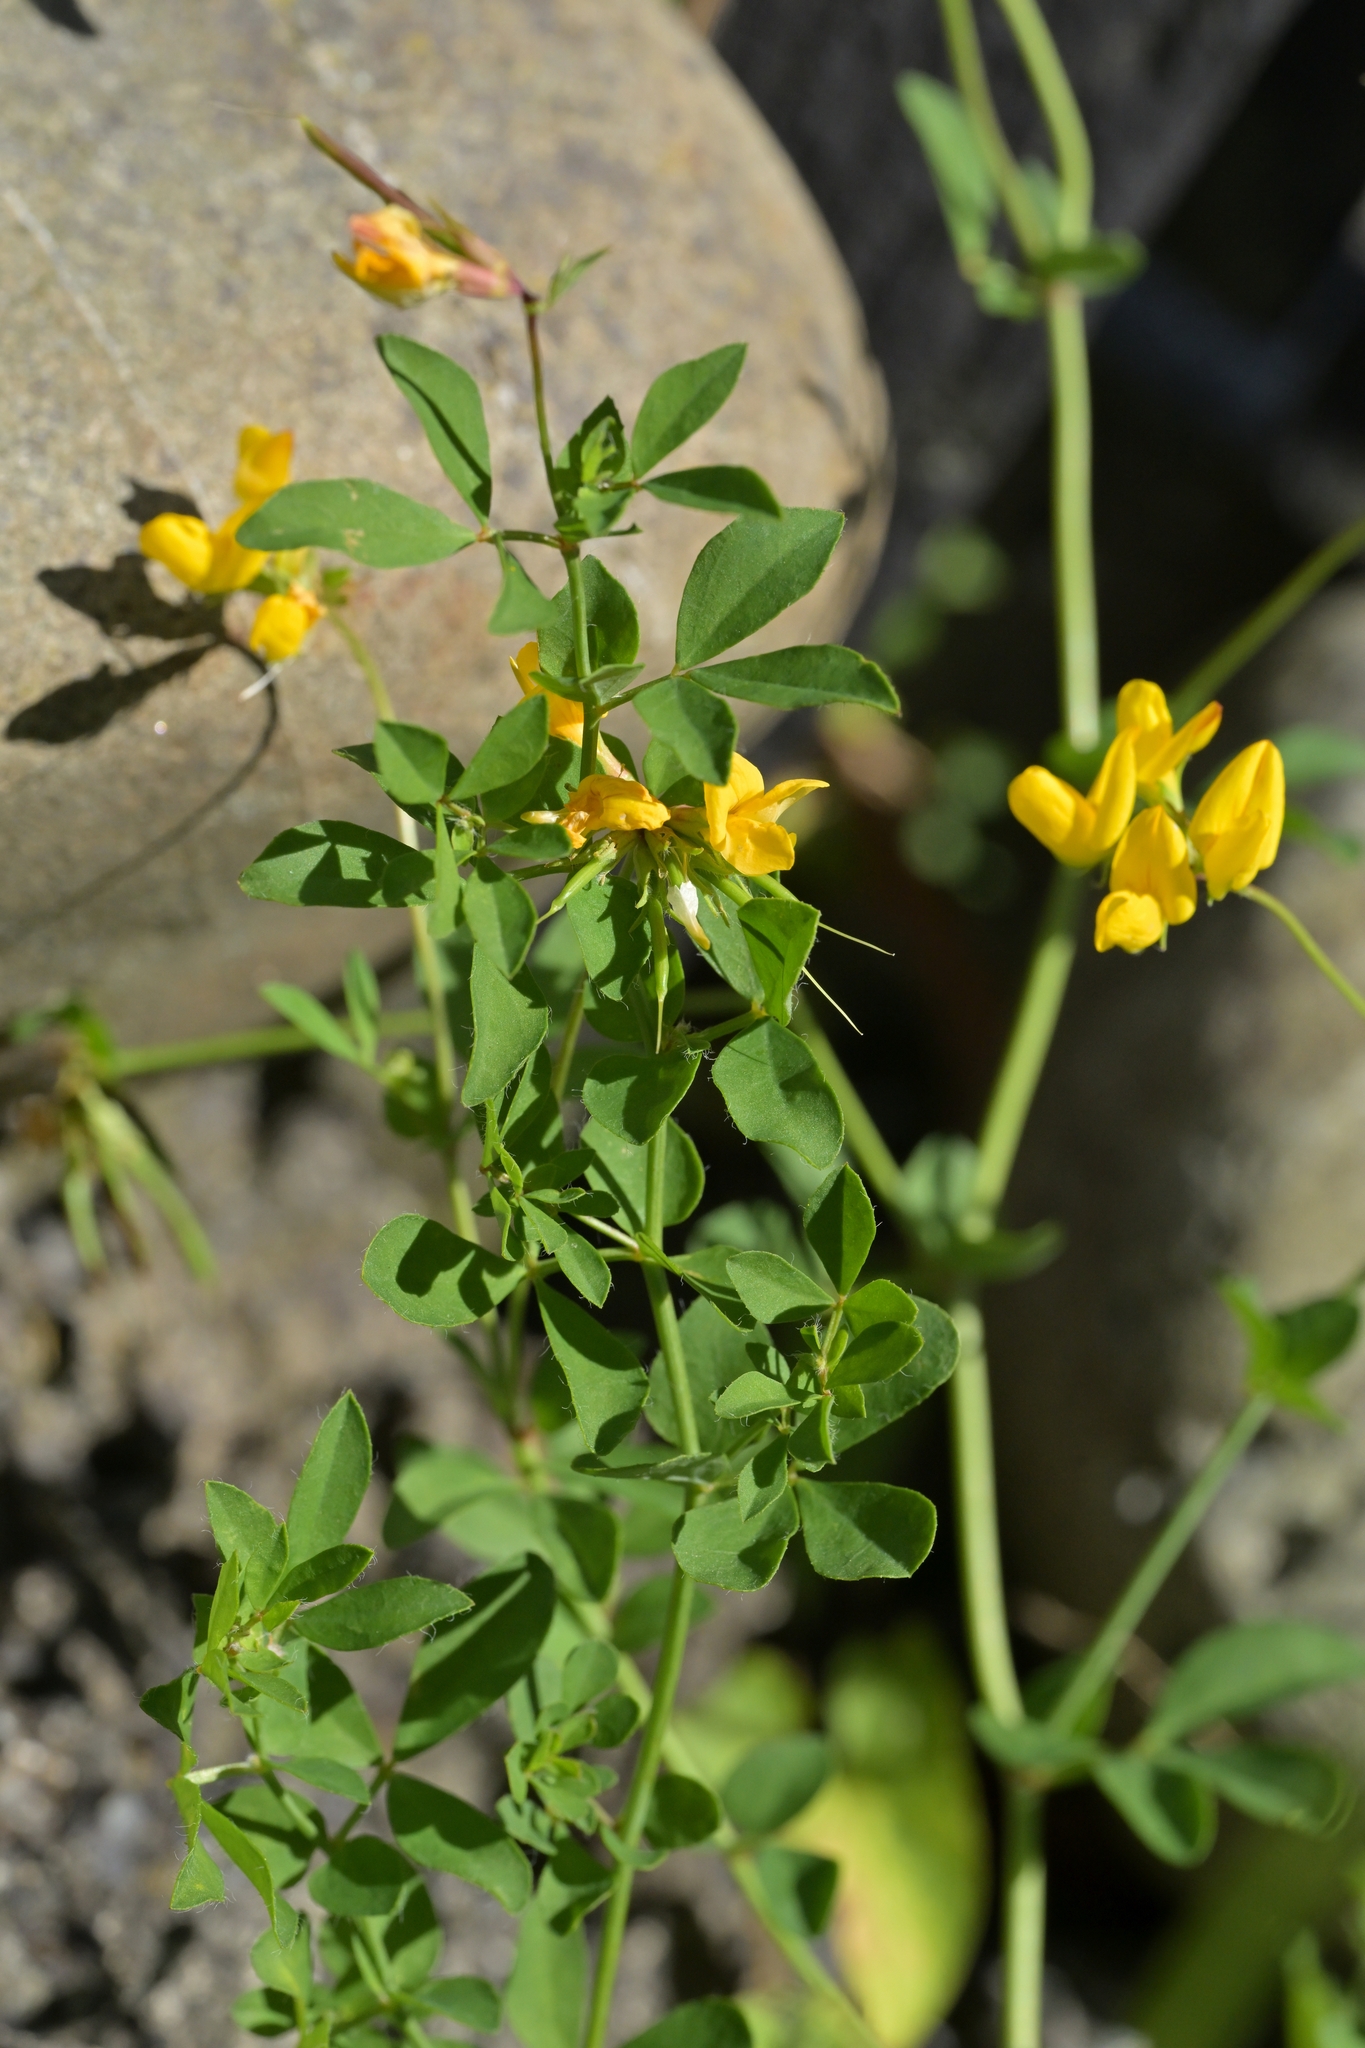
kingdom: Plantae
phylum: Tracheophyta
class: Magnoliopsida
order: Fabales
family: Fabaceae
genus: Lotus
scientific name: Lotus pedunculatus
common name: Greater birdsfoot-trefoil
